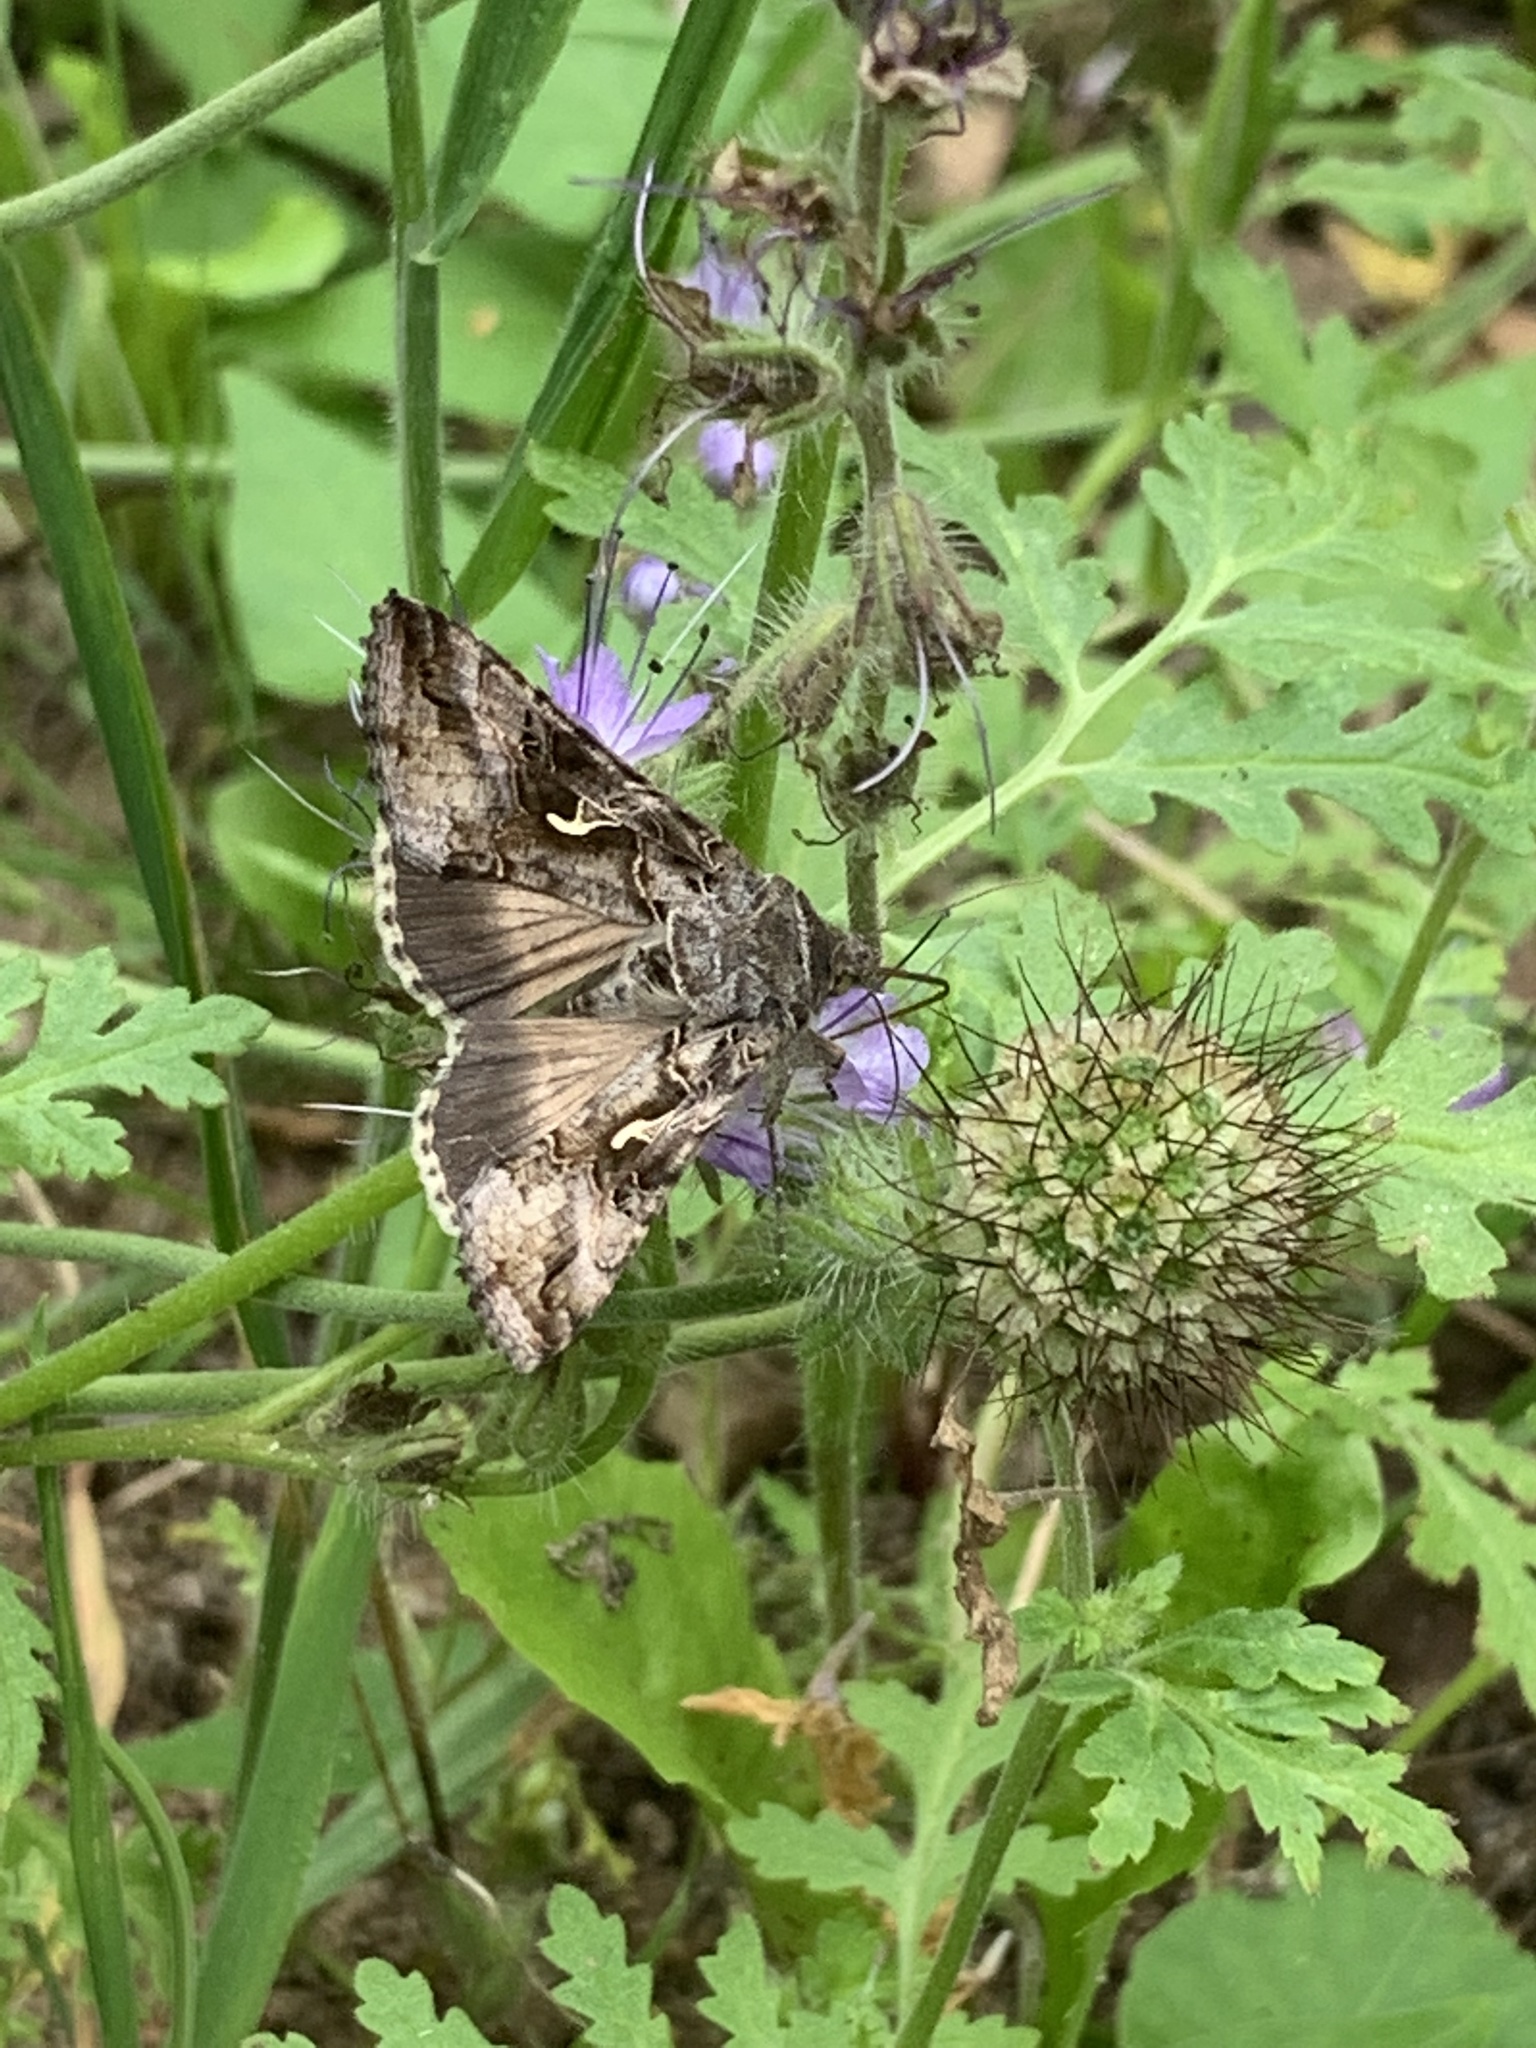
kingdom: Animalia
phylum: Arthropoda
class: Insecta
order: Lepidoptera
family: Noctuidae
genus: Autographa
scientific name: Autographa gamma
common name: Silver y
